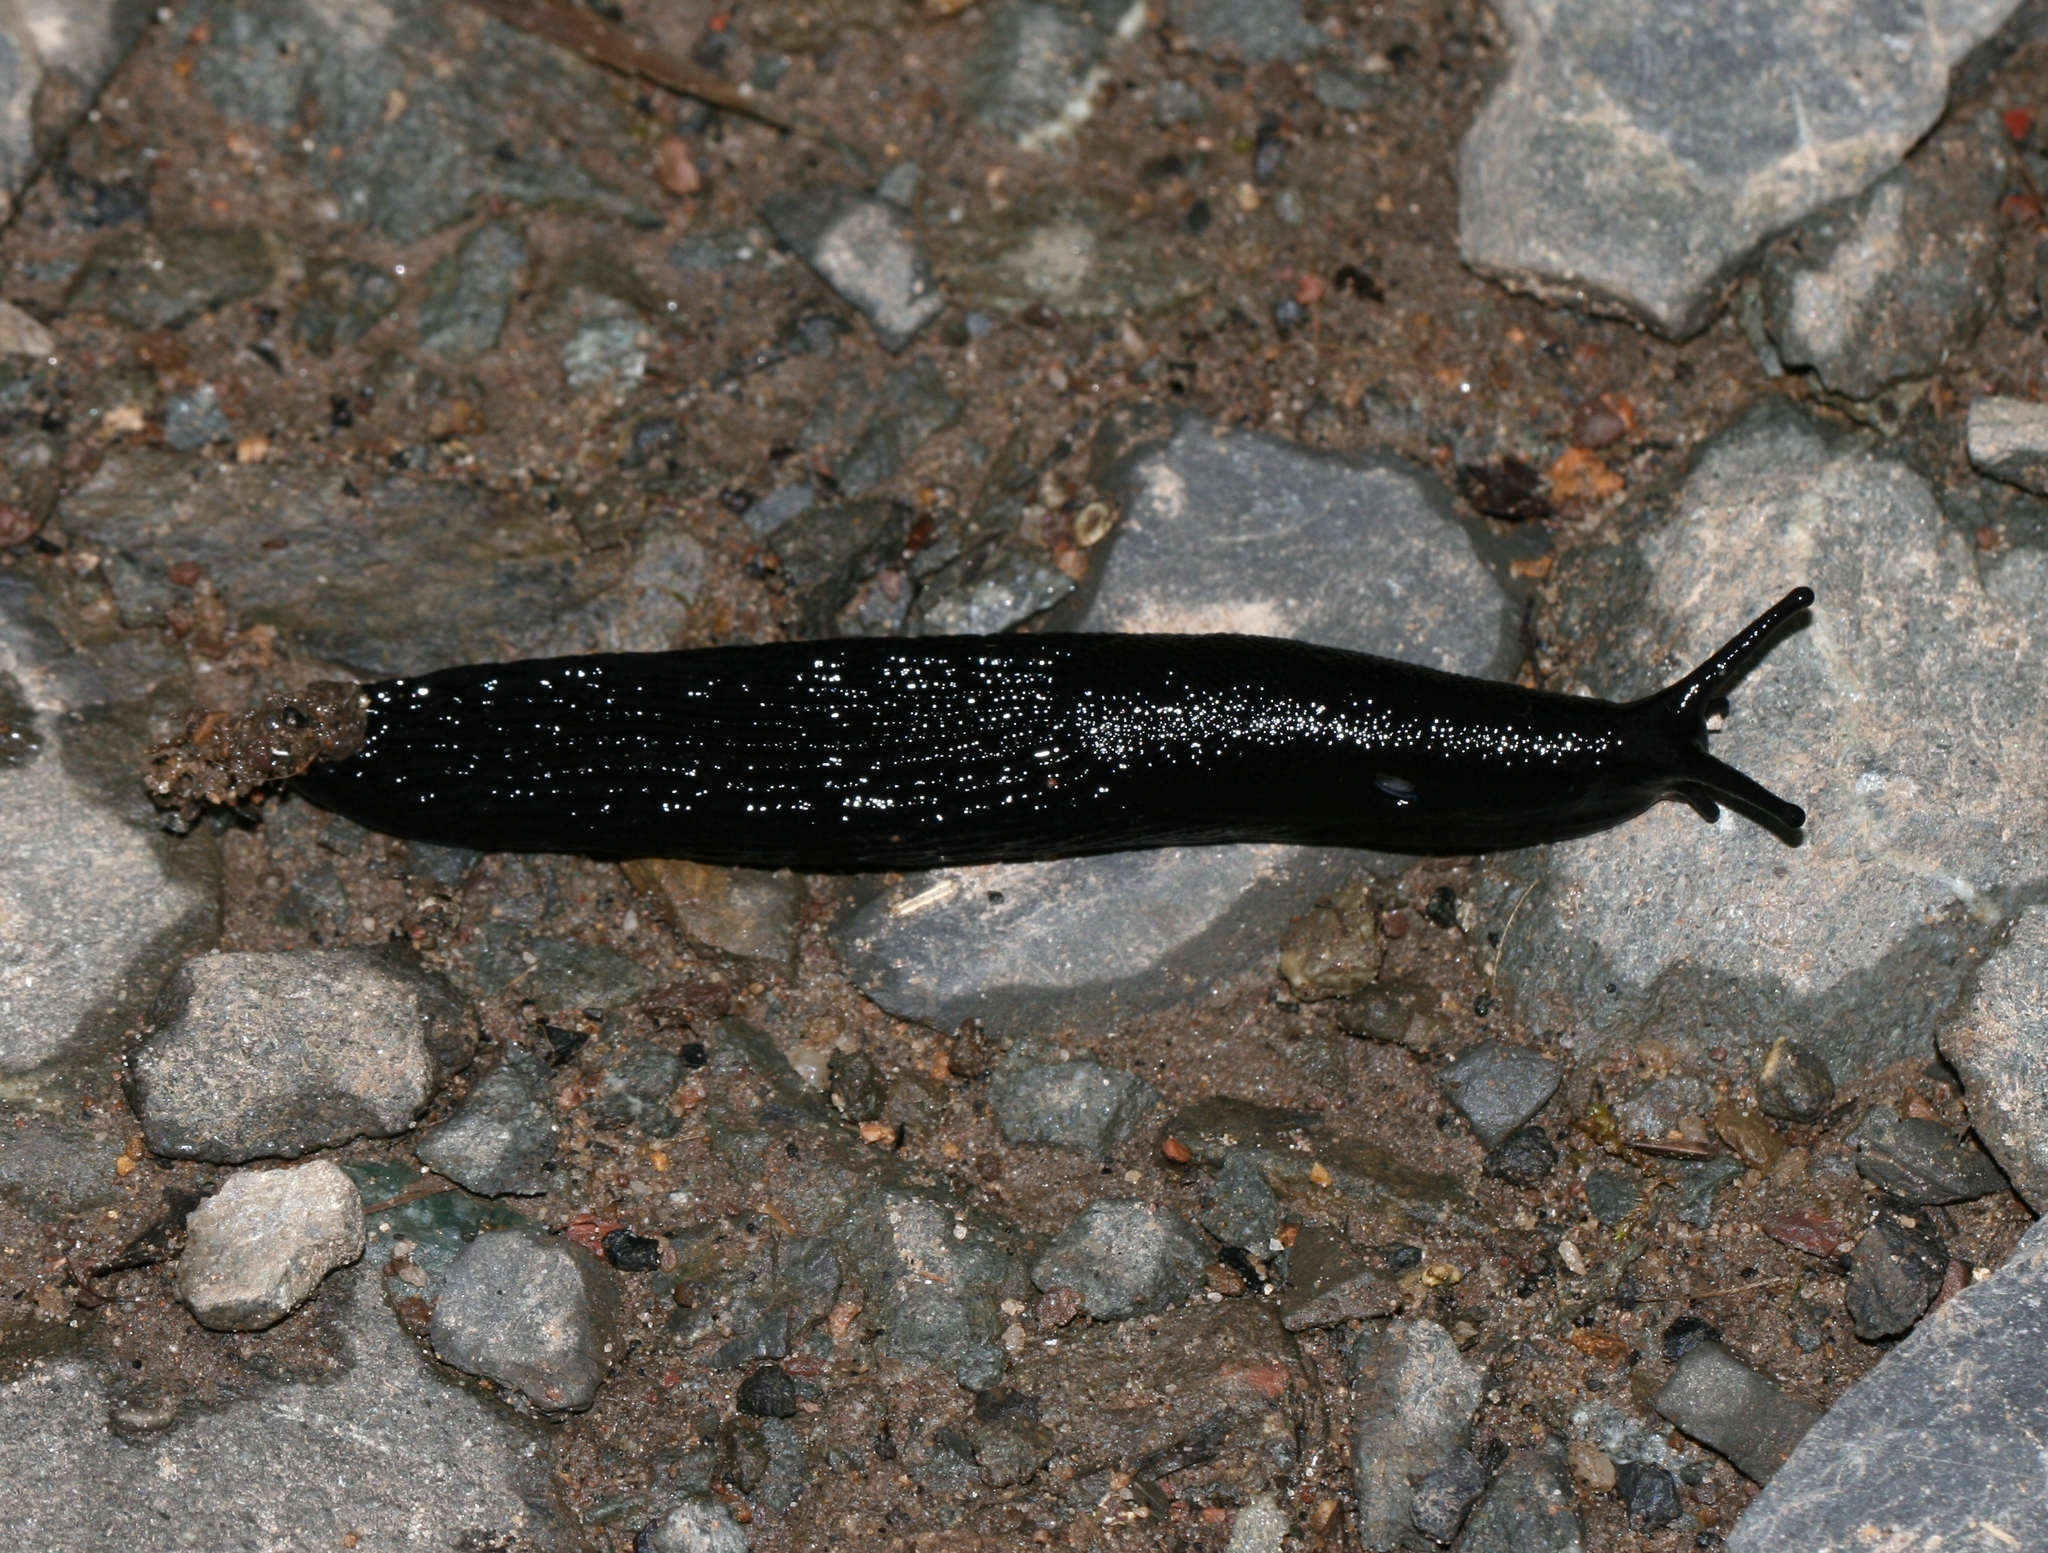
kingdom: Animalia
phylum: Mollusca
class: Gastropoda
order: Stylommatophora
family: Arionidae
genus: Arion
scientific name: Arion ater
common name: Black arion
